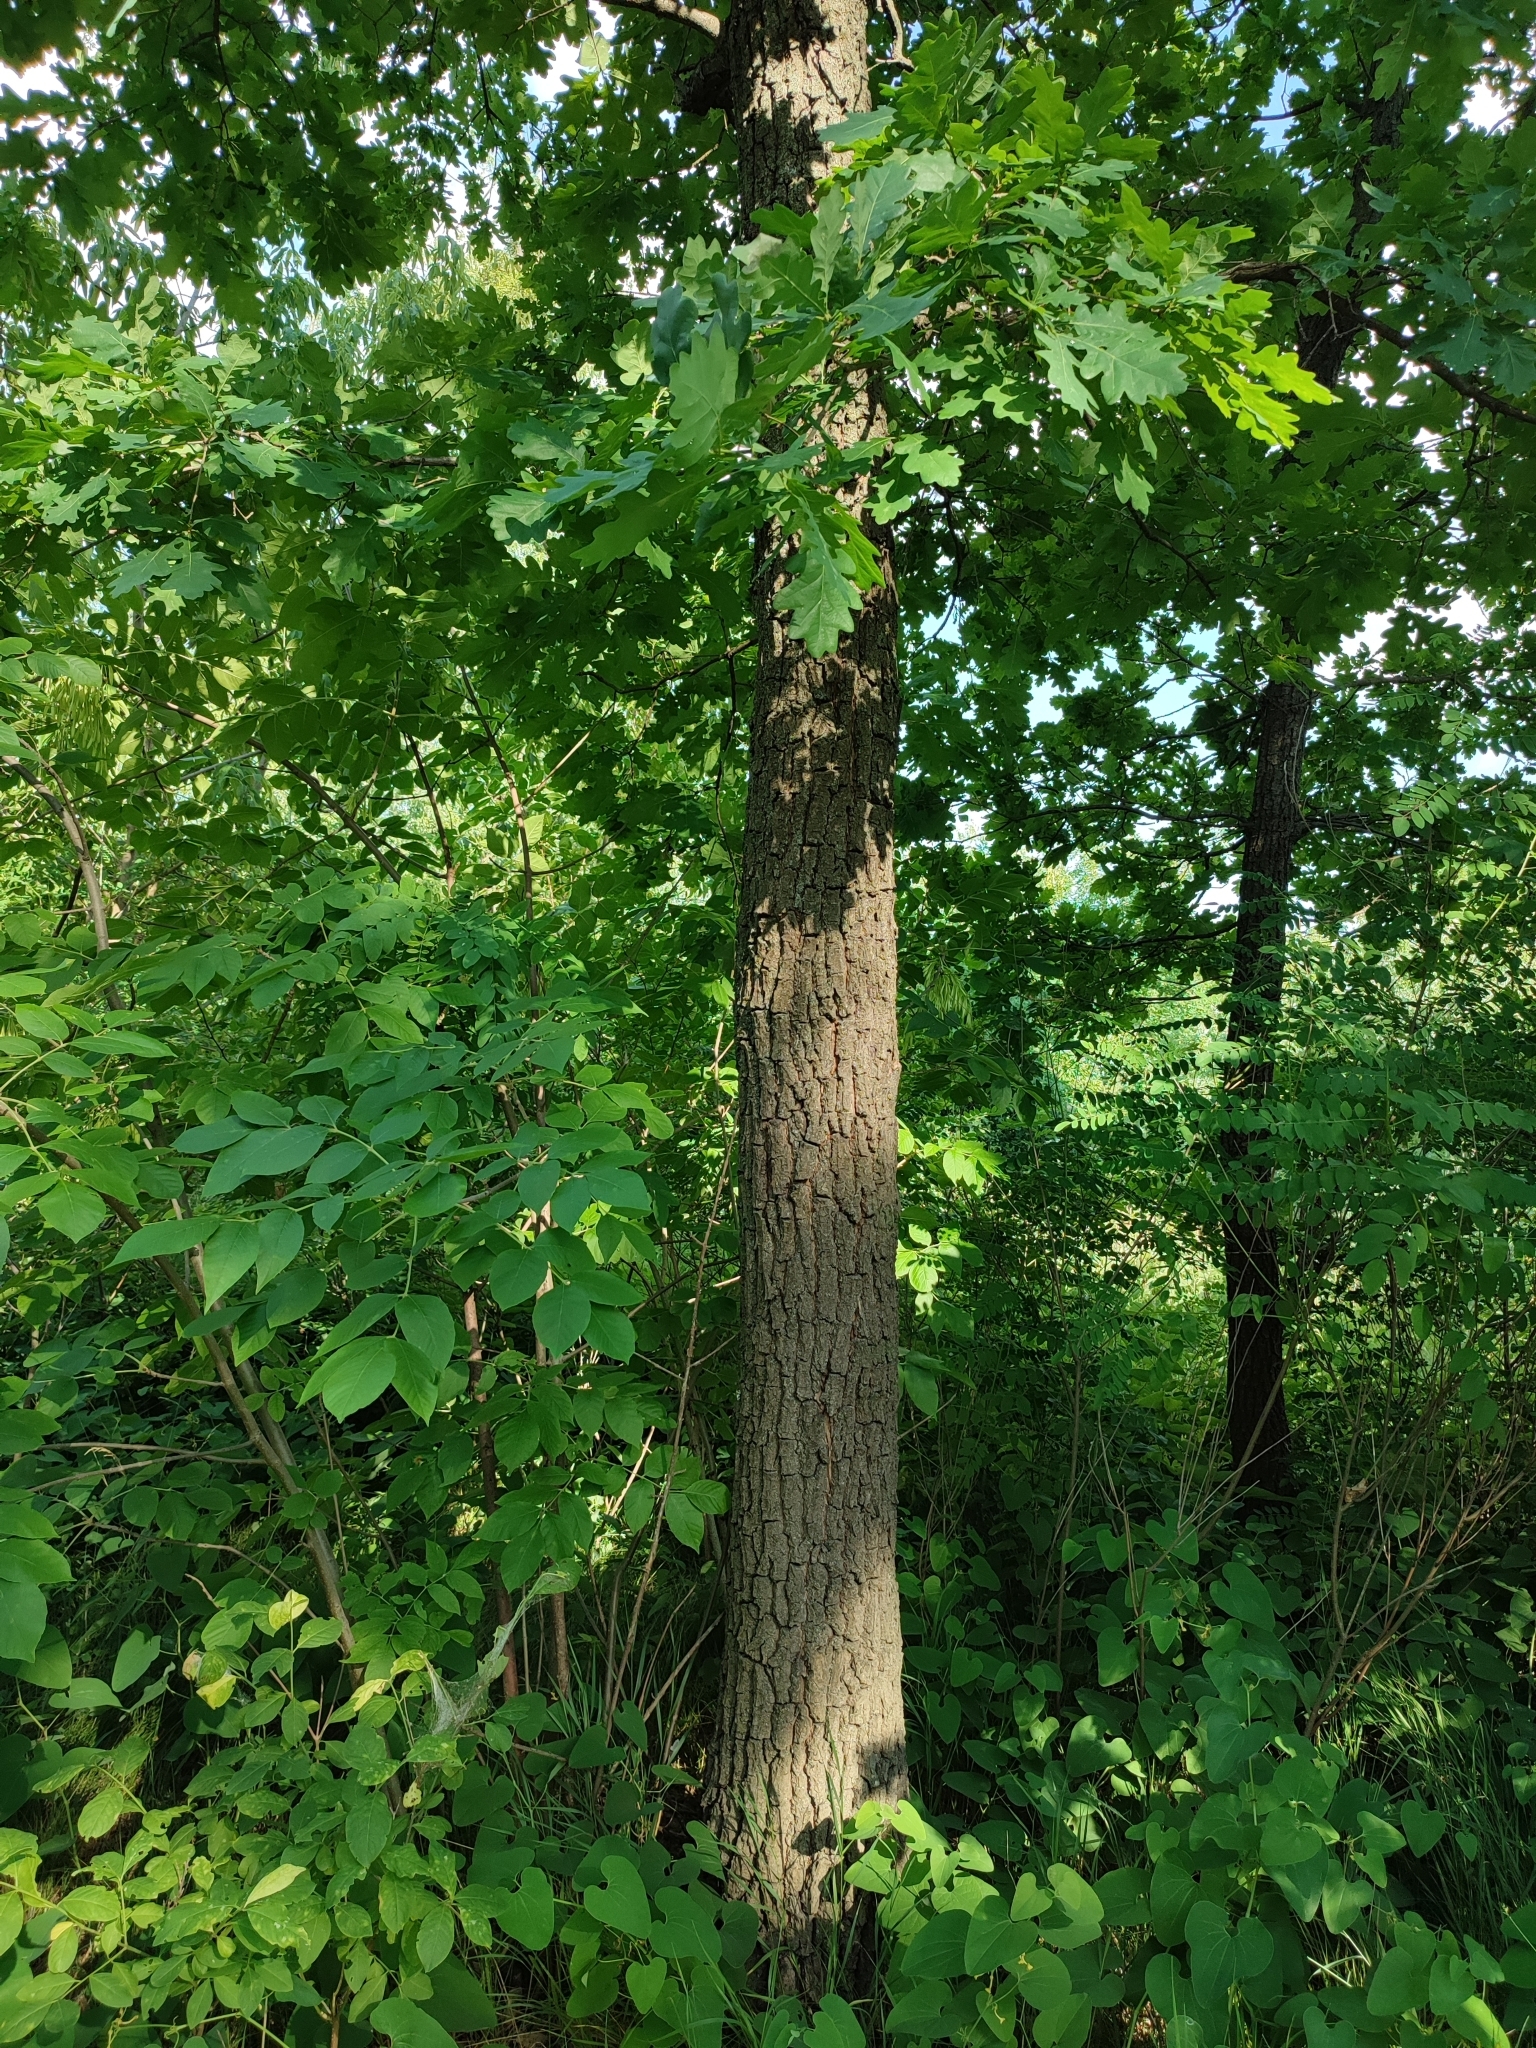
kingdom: Plantae
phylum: Tracheophyta
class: Magnoliopsida
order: Fagales
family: Fagaceae
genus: Quercus
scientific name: Quercus robur
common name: Pedunculate oak
